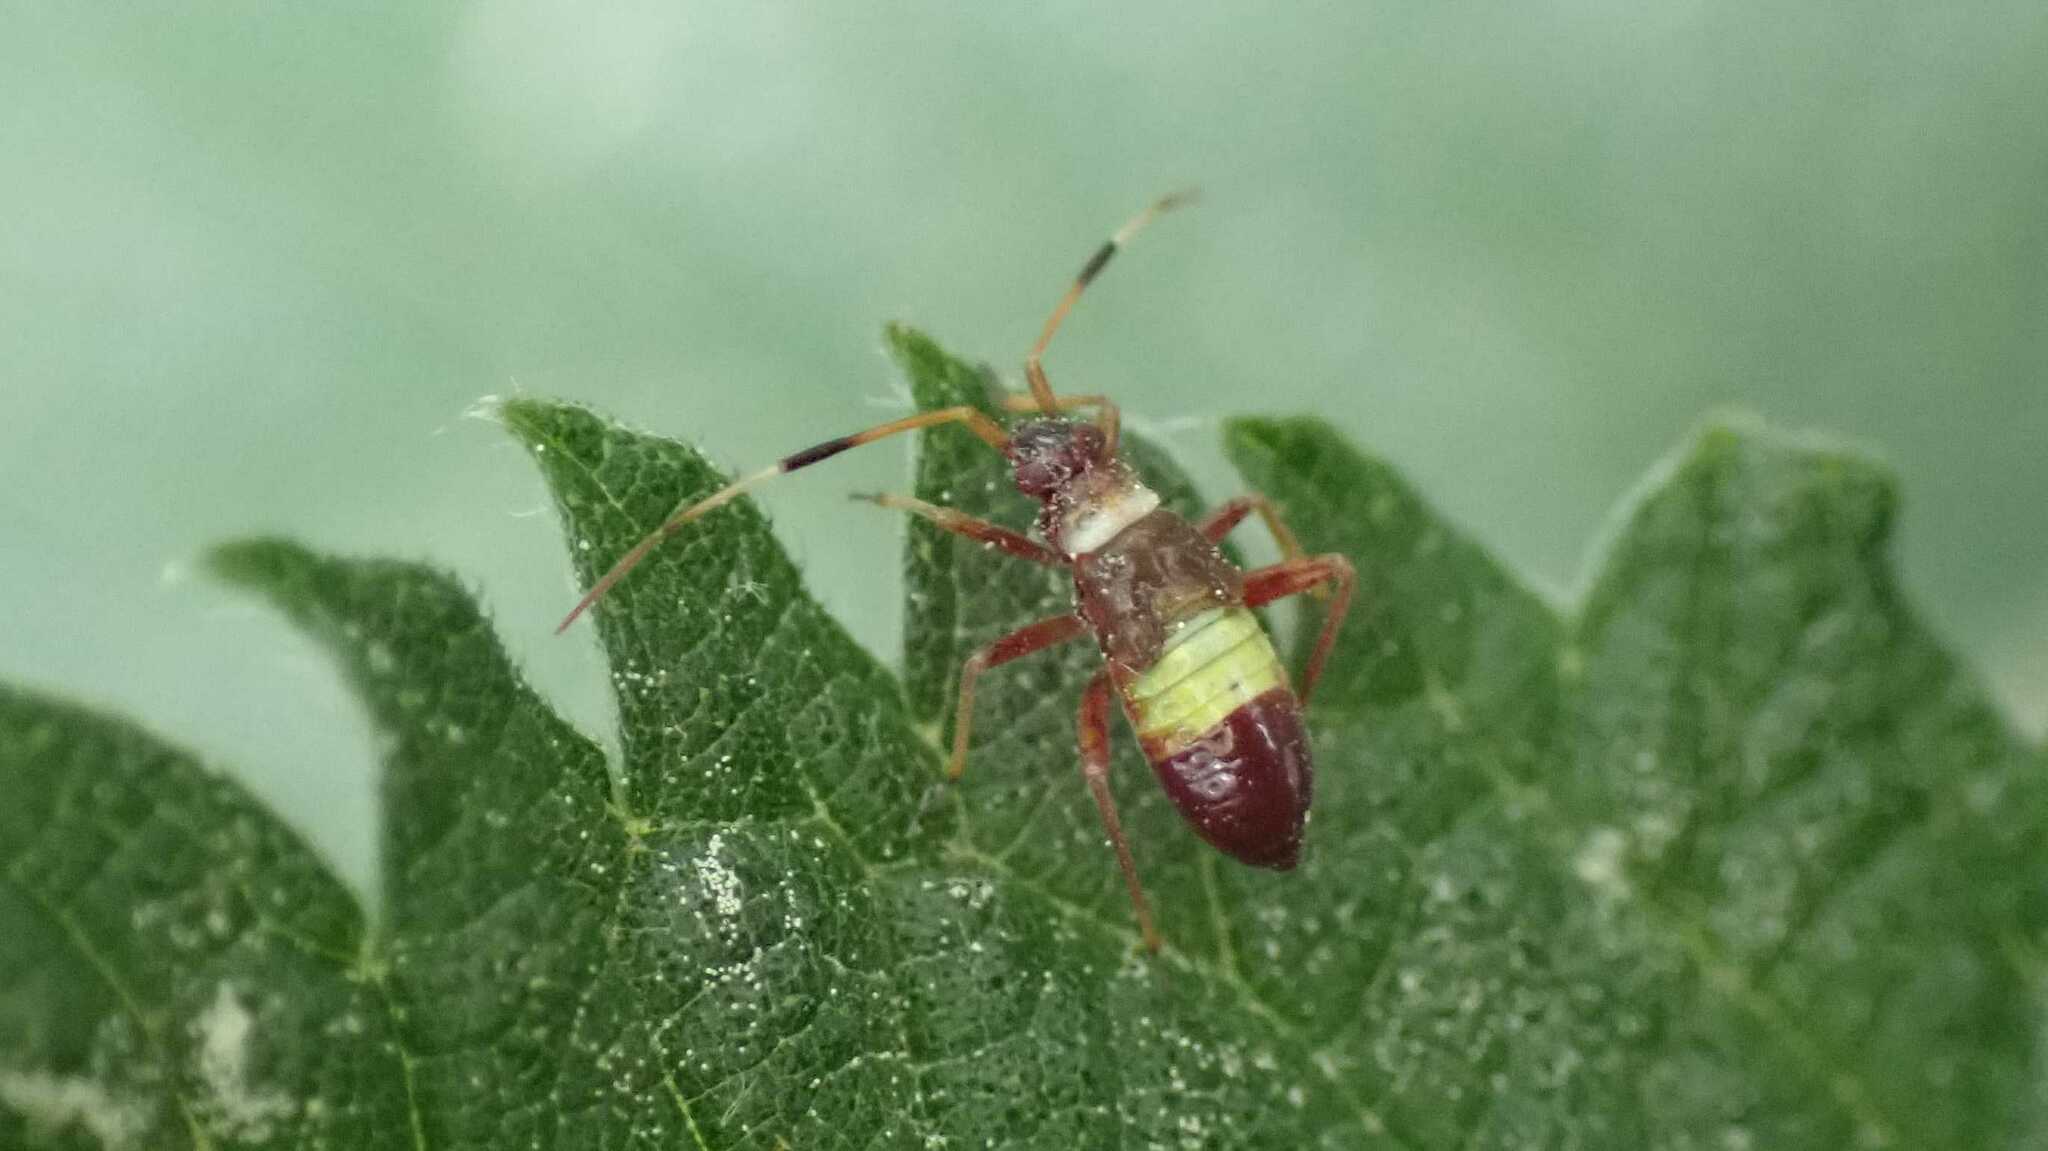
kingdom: Animalia
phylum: Arthropoda
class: Insecta
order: Hemiptera
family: Miridae
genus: Closterotomus
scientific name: Closterotomus biclavatus
